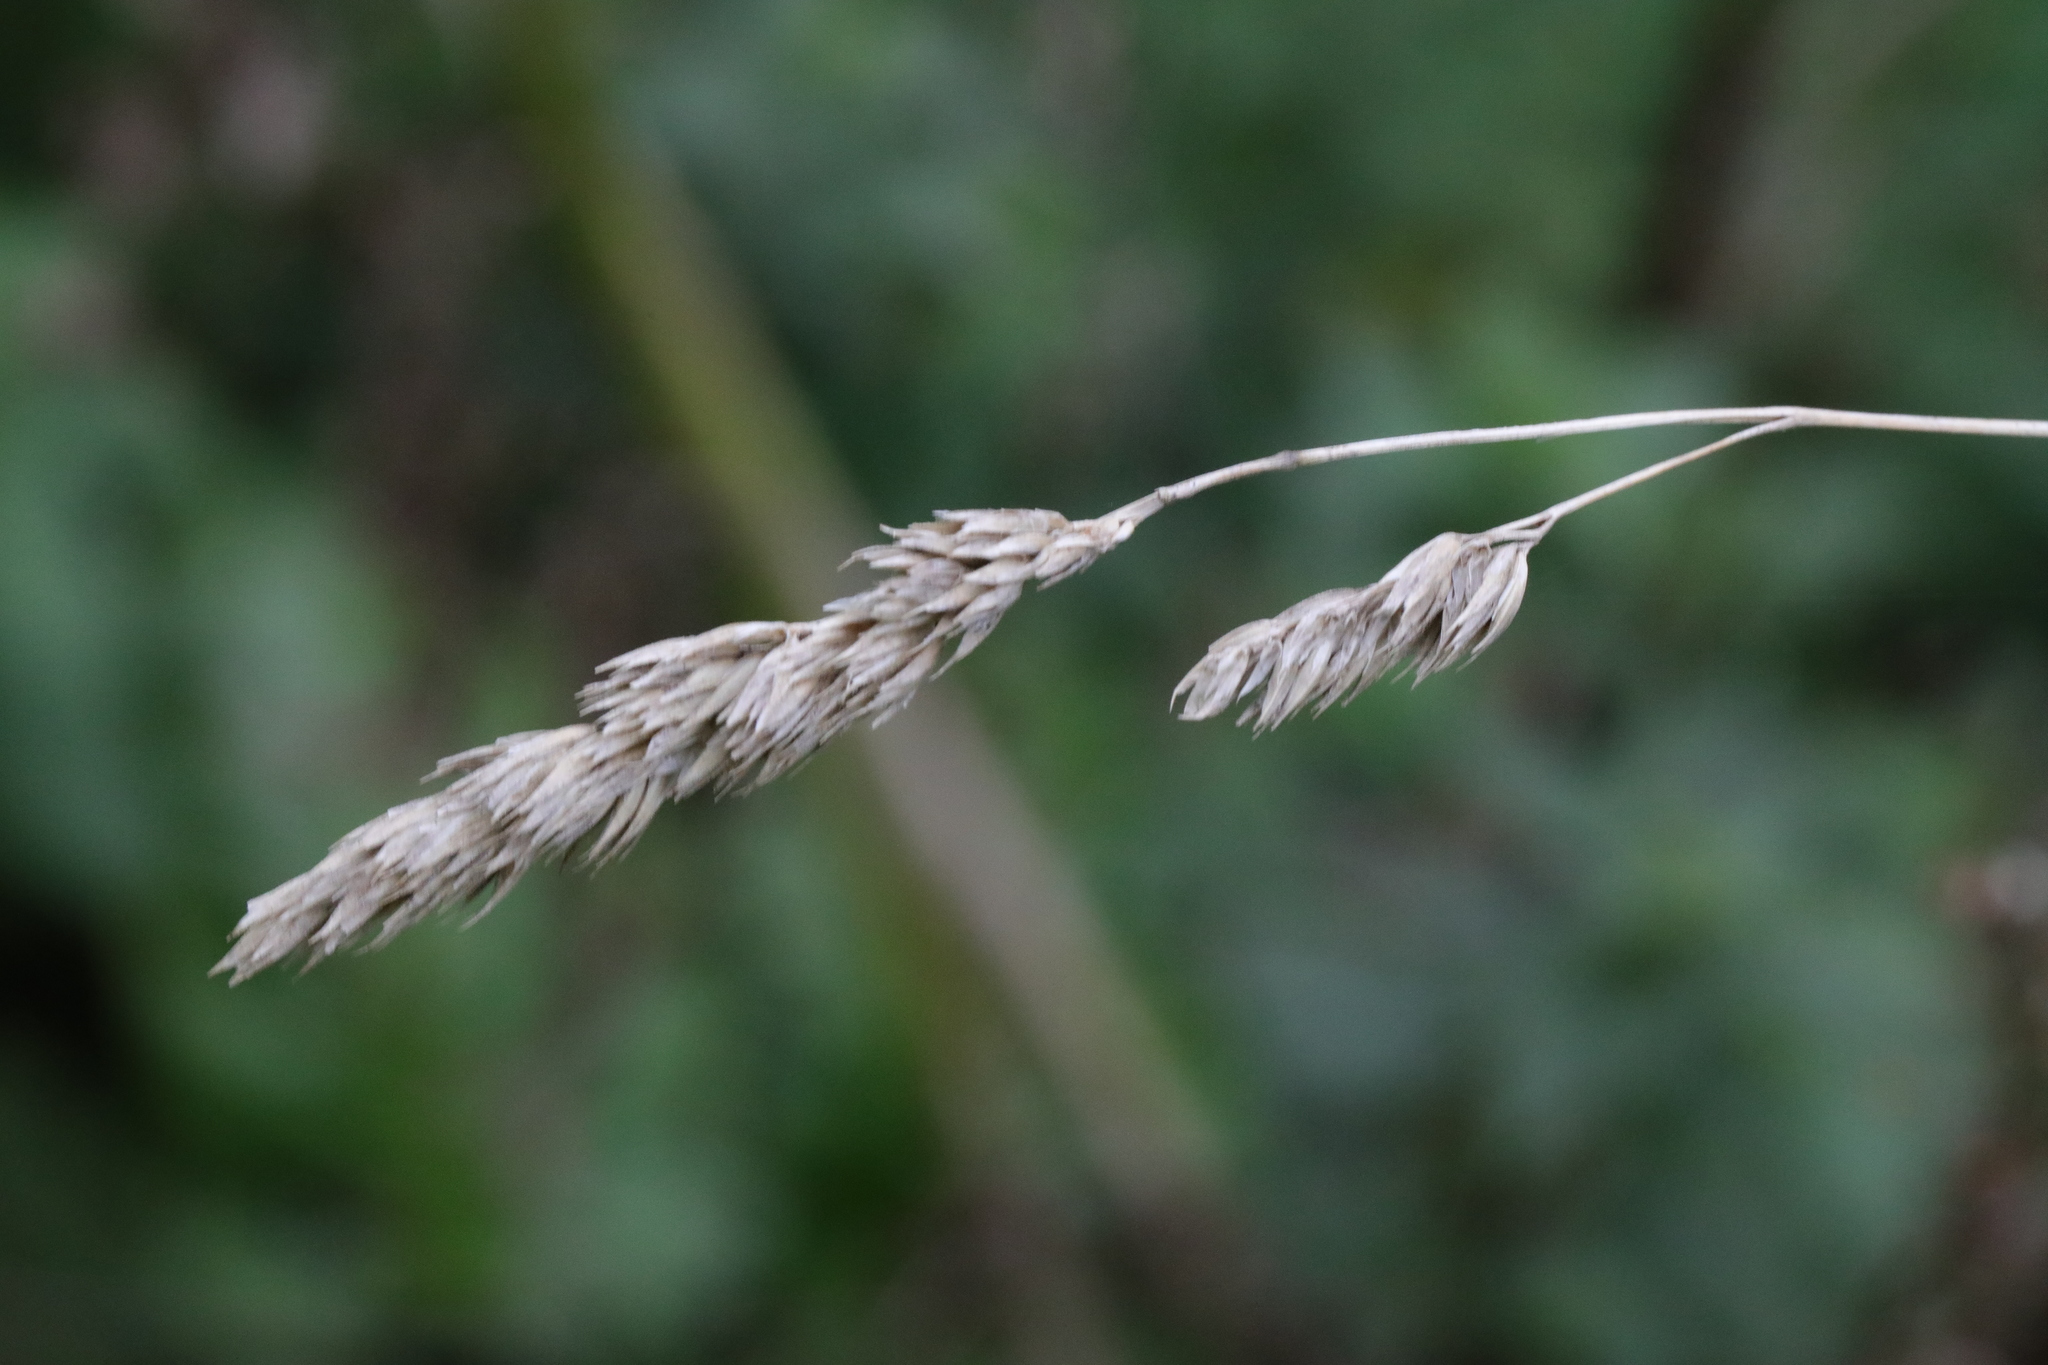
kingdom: Plantae
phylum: Tracheophyta
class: Liliopsida
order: Poales
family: Poaceae
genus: Dactylis
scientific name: Dactylis glomerata
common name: Orchardgrass
